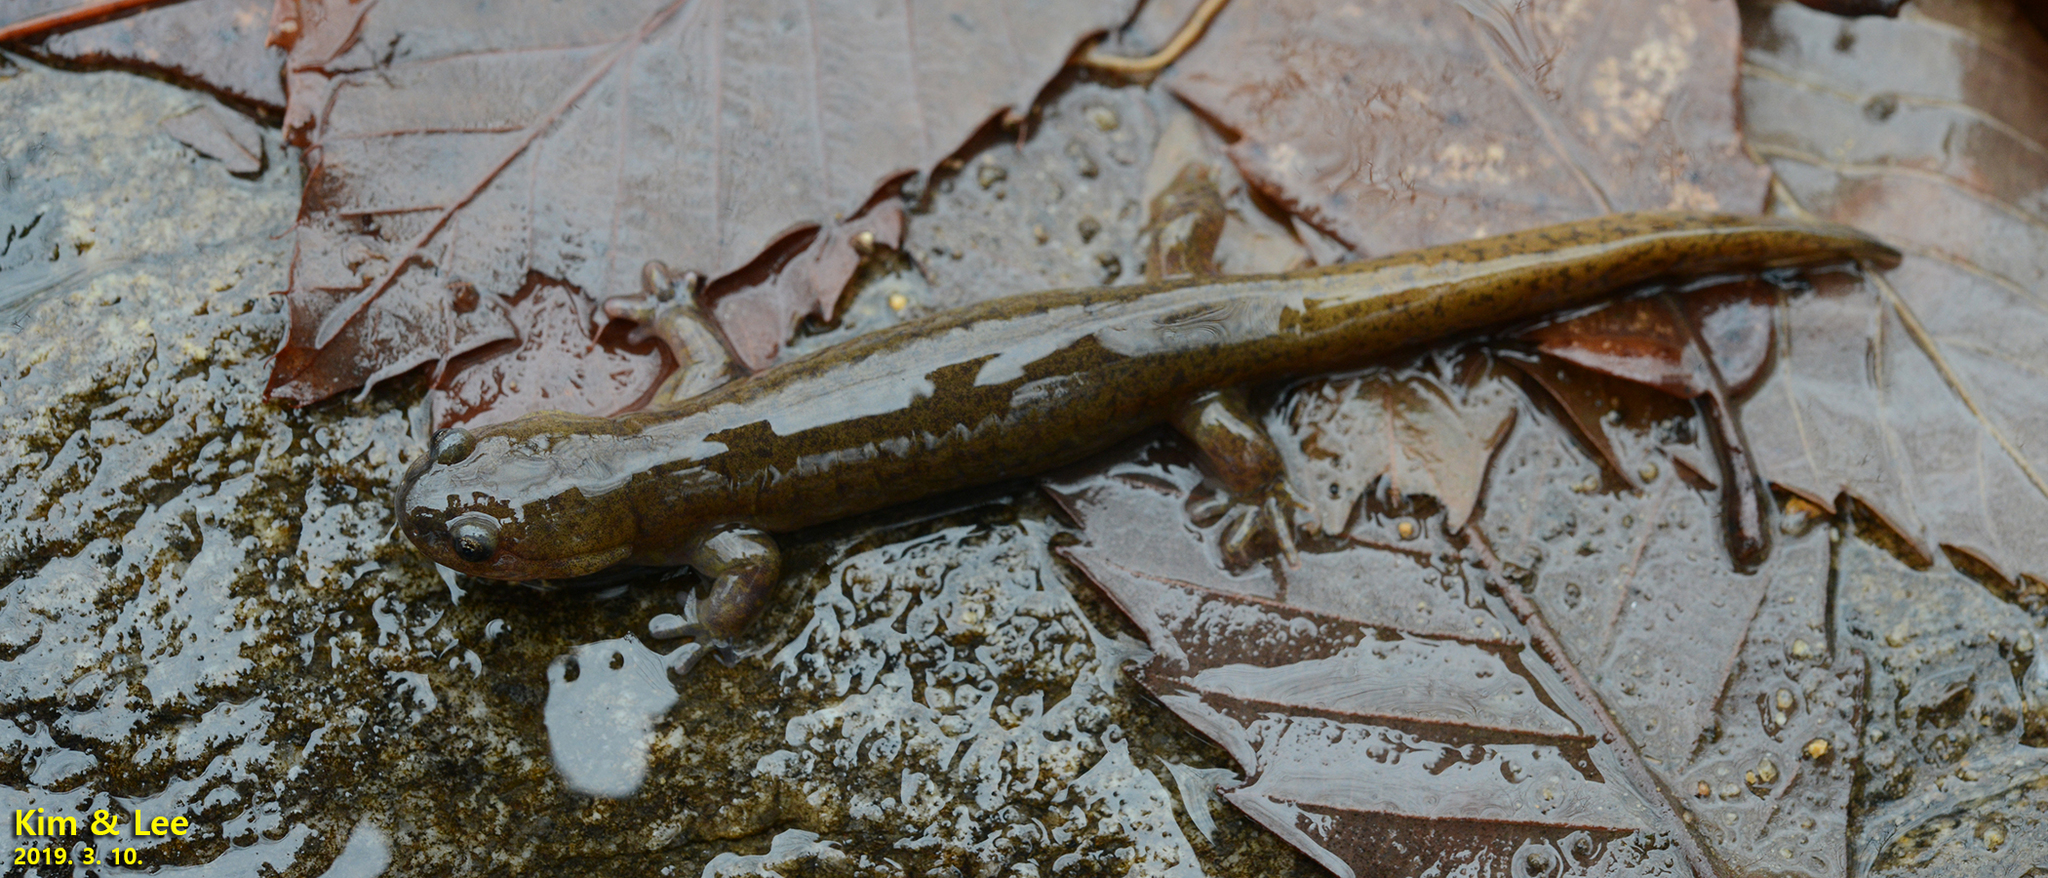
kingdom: Animalia
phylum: Chordata
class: Amphibia
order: Caudata
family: Hynobiidae
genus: Hynobius
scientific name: Hynobius unisacculus
